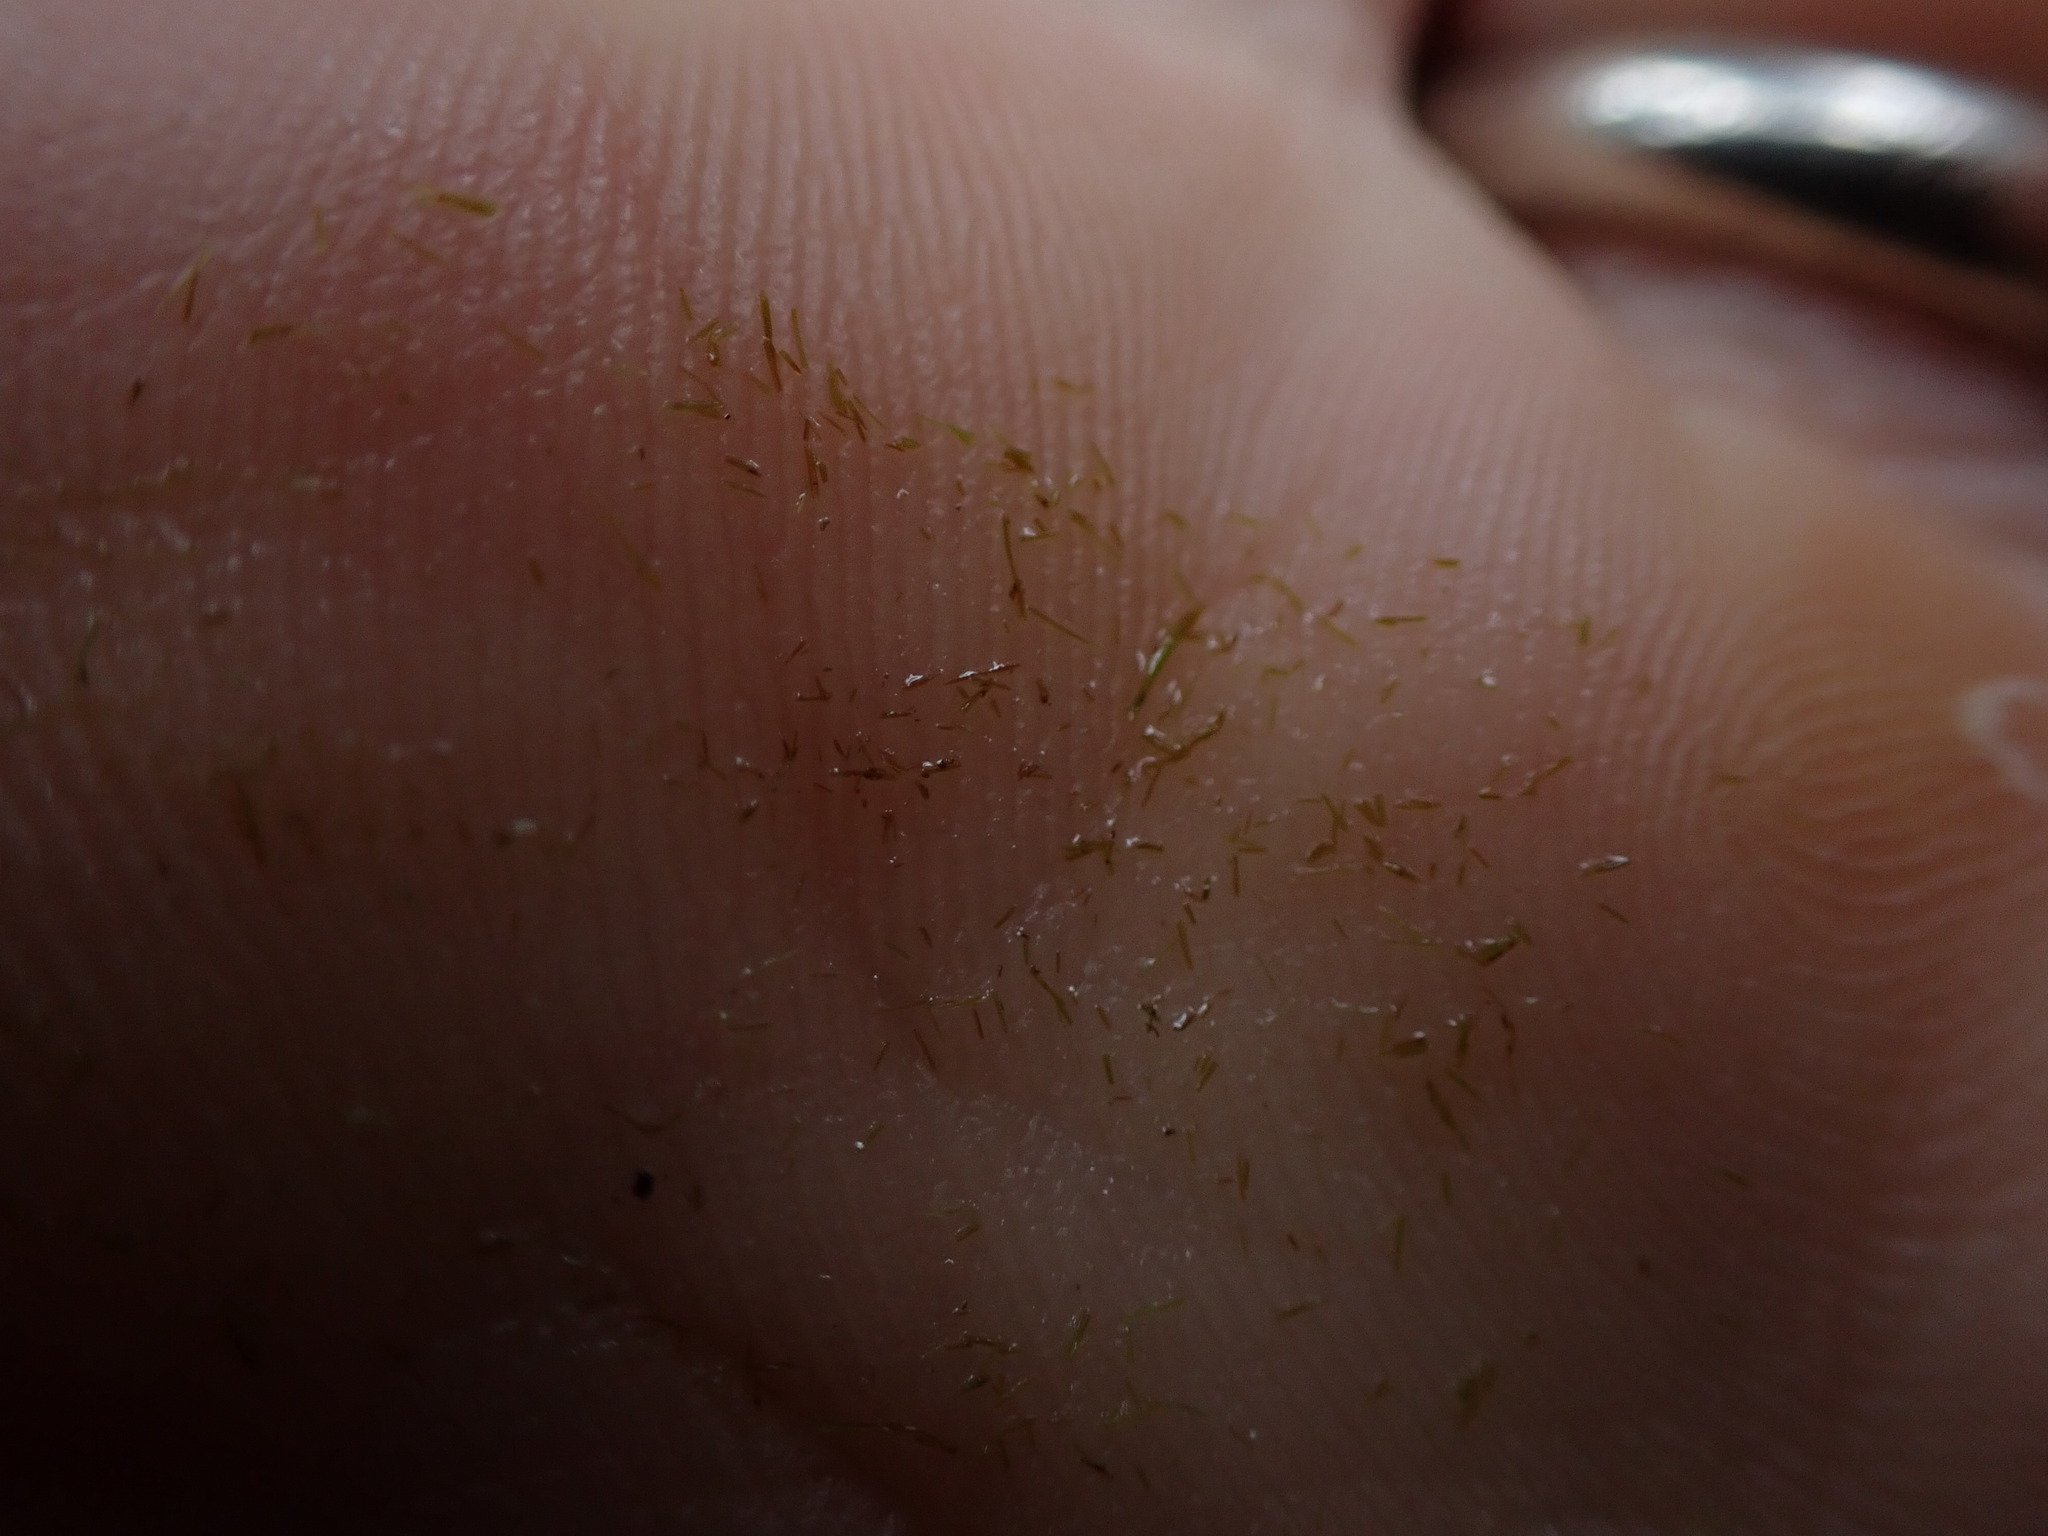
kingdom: Plantae
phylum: Bryophyta
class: Bryopsida
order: Dicranales
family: Dicranaceae
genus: Orthodicranum
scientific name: Orthodicranum tauricum
